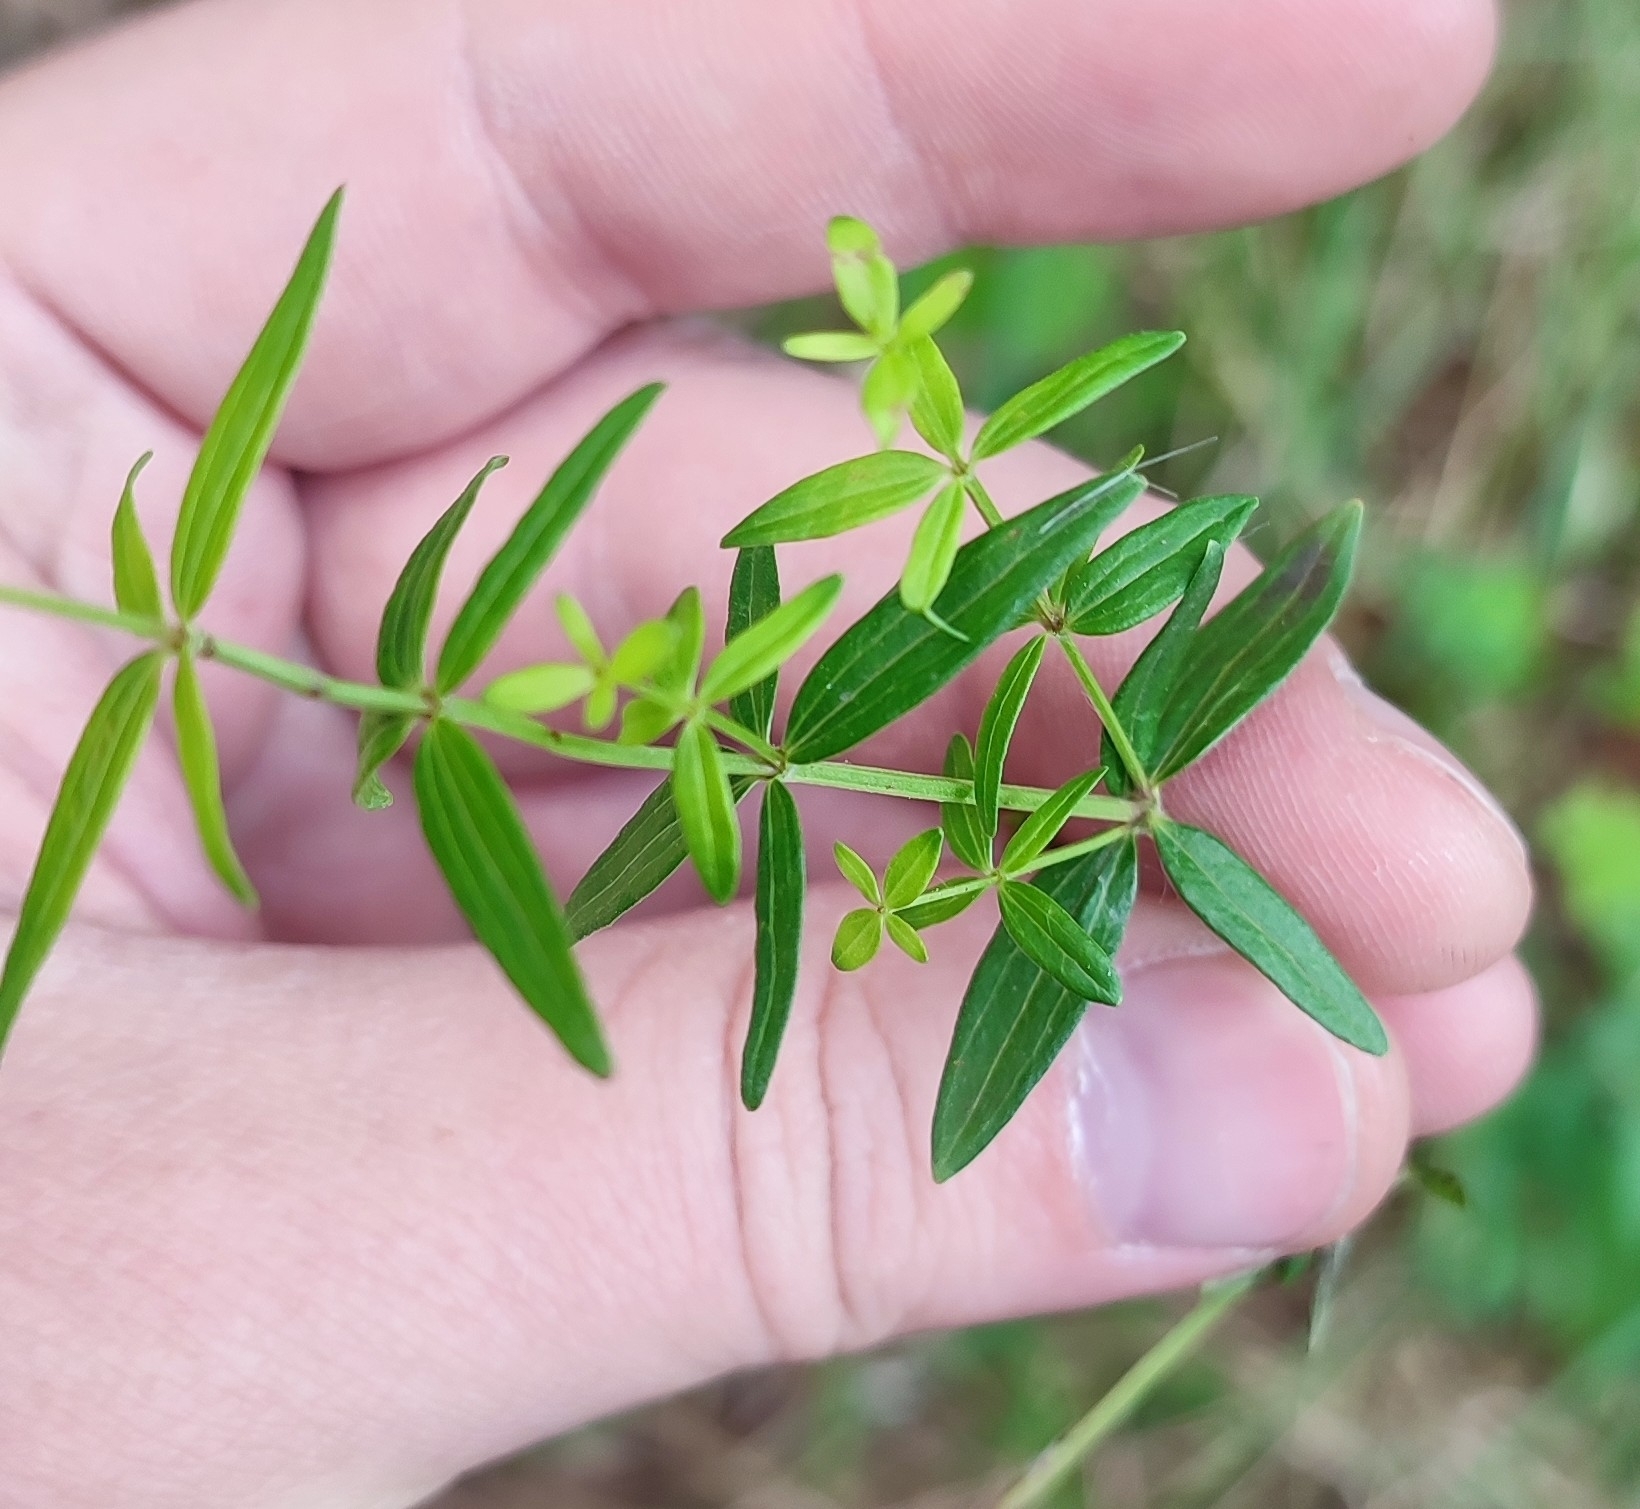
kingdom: Plantae
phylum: Tracheophyta
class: Magnoliopsida
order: Gentianales
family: Rubiaceae
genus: Galium
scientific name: Galium boreale
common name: Northern bedstraw
